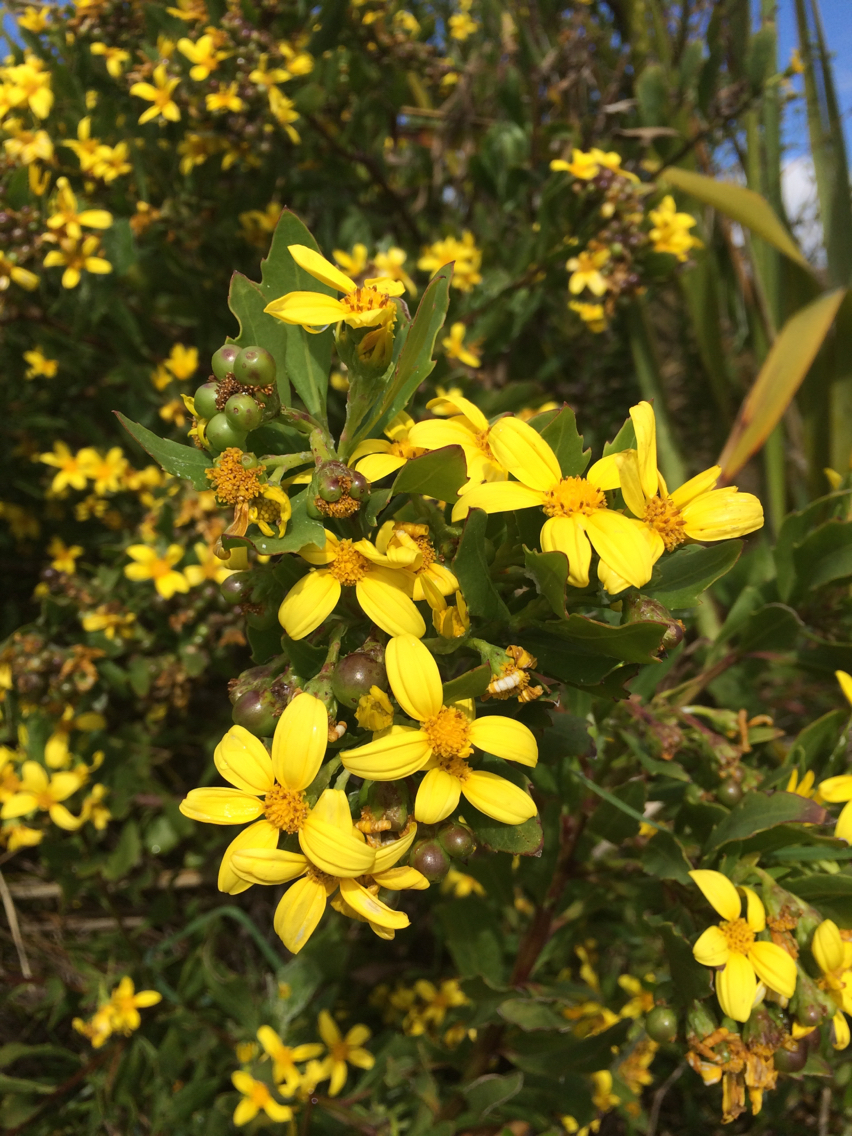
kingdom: Plantae
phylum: Tracheophyta
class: Magnoliopsida
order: Asterales
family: Asteraceae
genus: Osteospermum
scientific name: Osteospermum moniliferum
